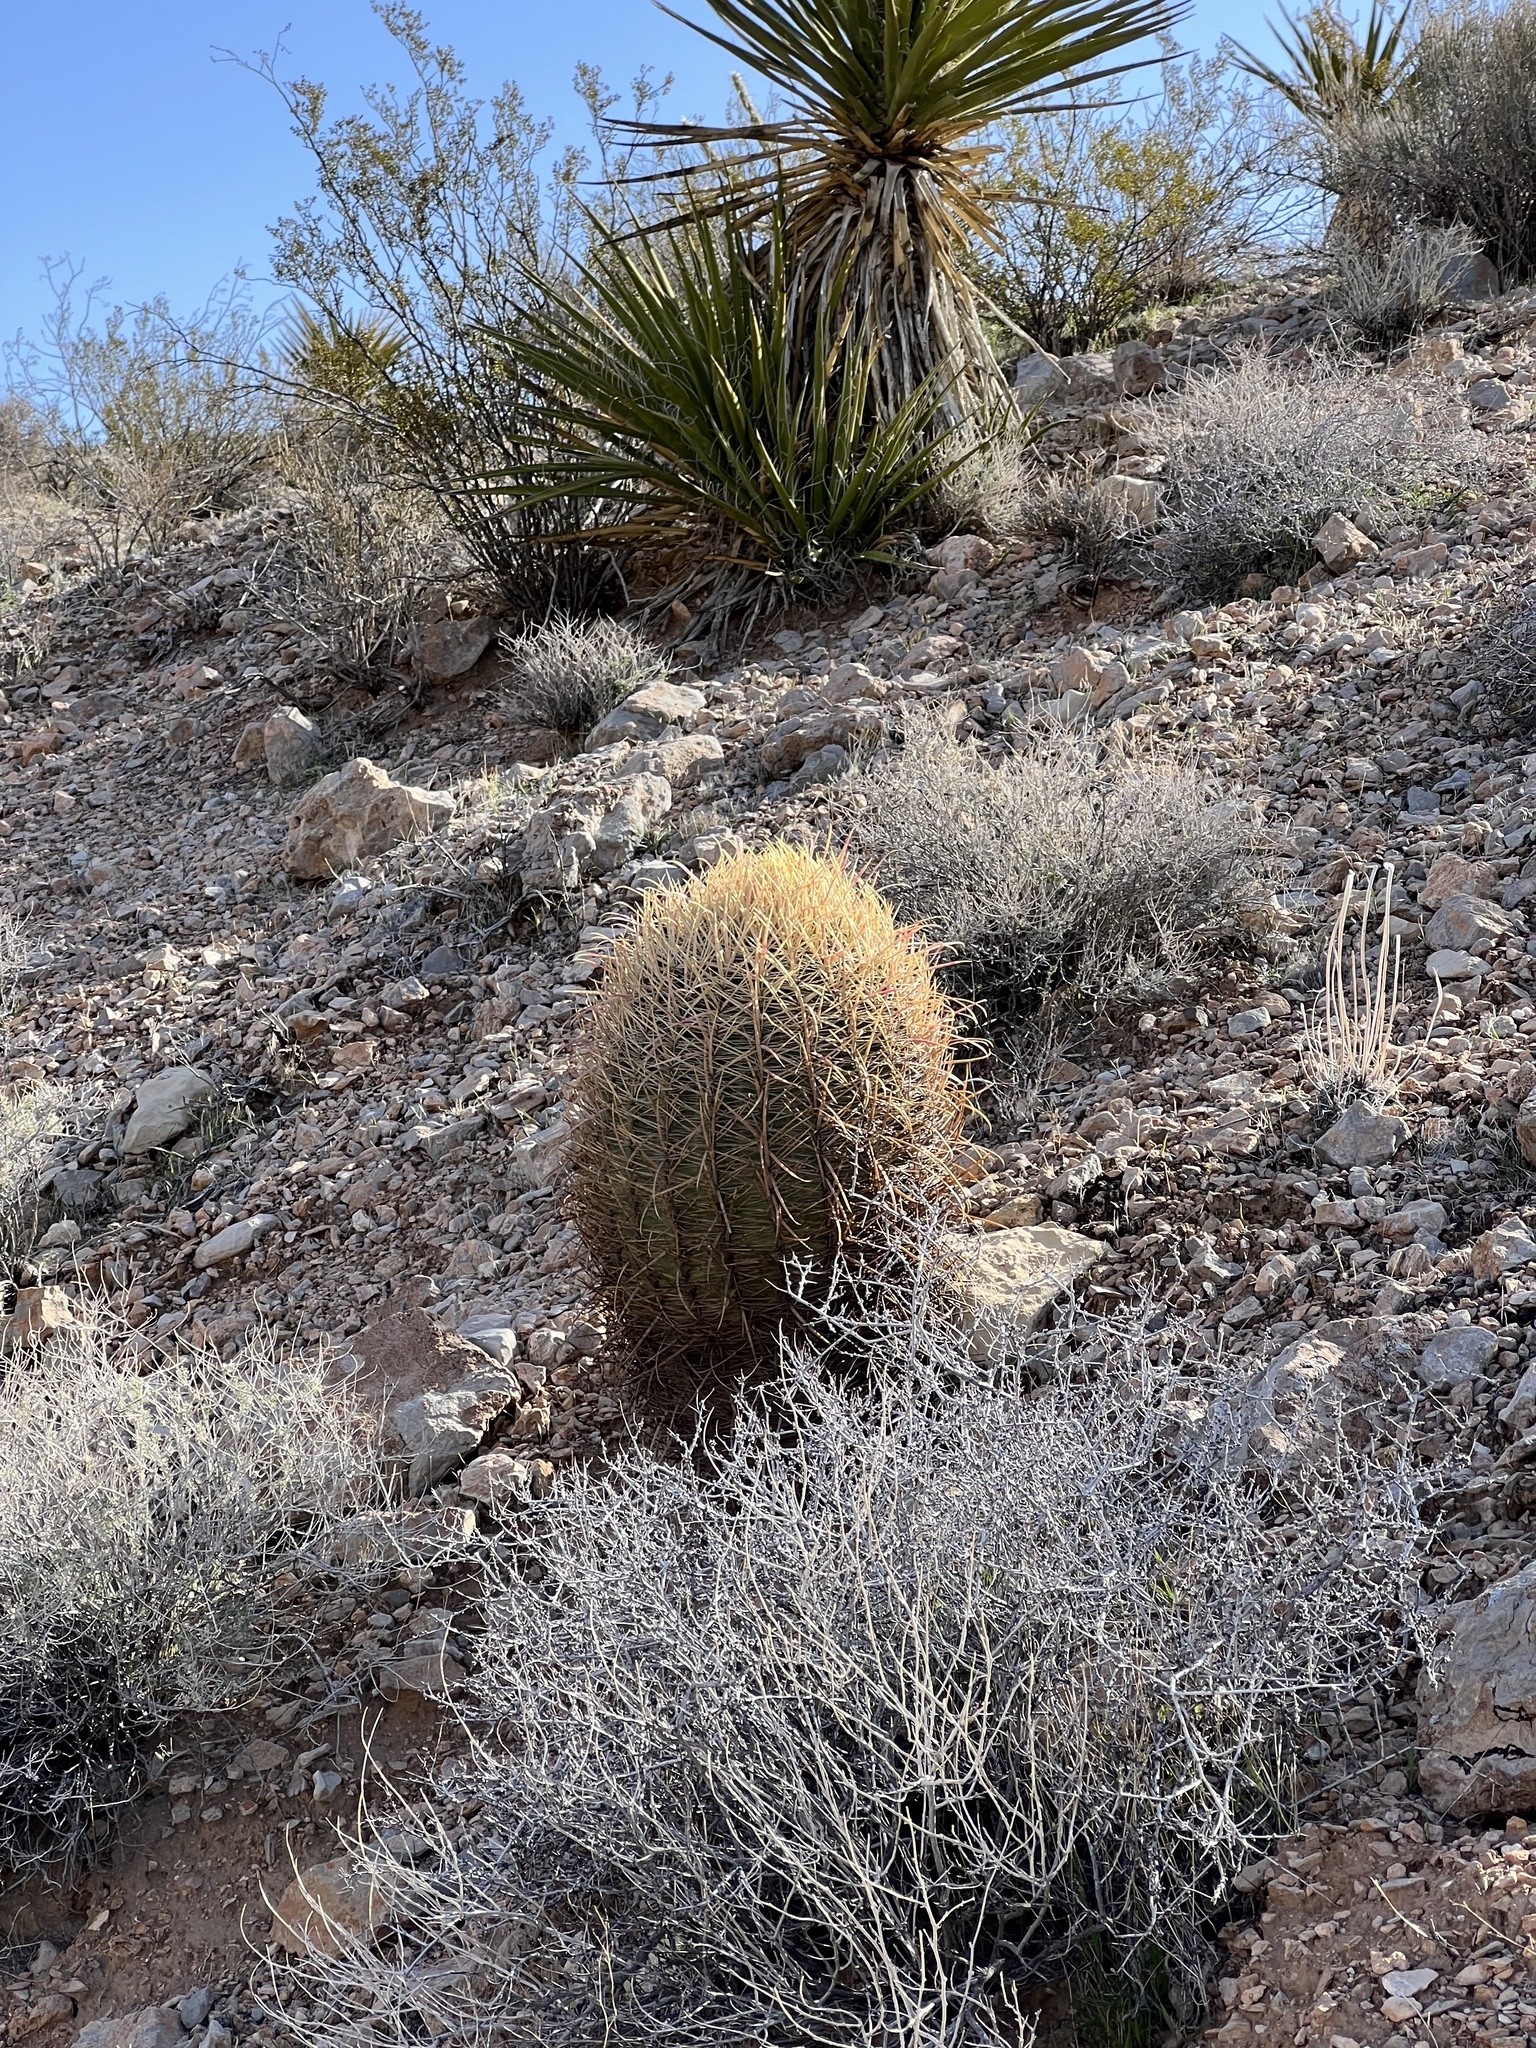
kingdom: Plantae
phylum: Tracheophyta
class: Magnoliopsida
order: Caryophyllales
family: Cactaceae
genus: Ferocactus
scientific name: Ferocactus cylindraceus
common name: California barrel cactus
